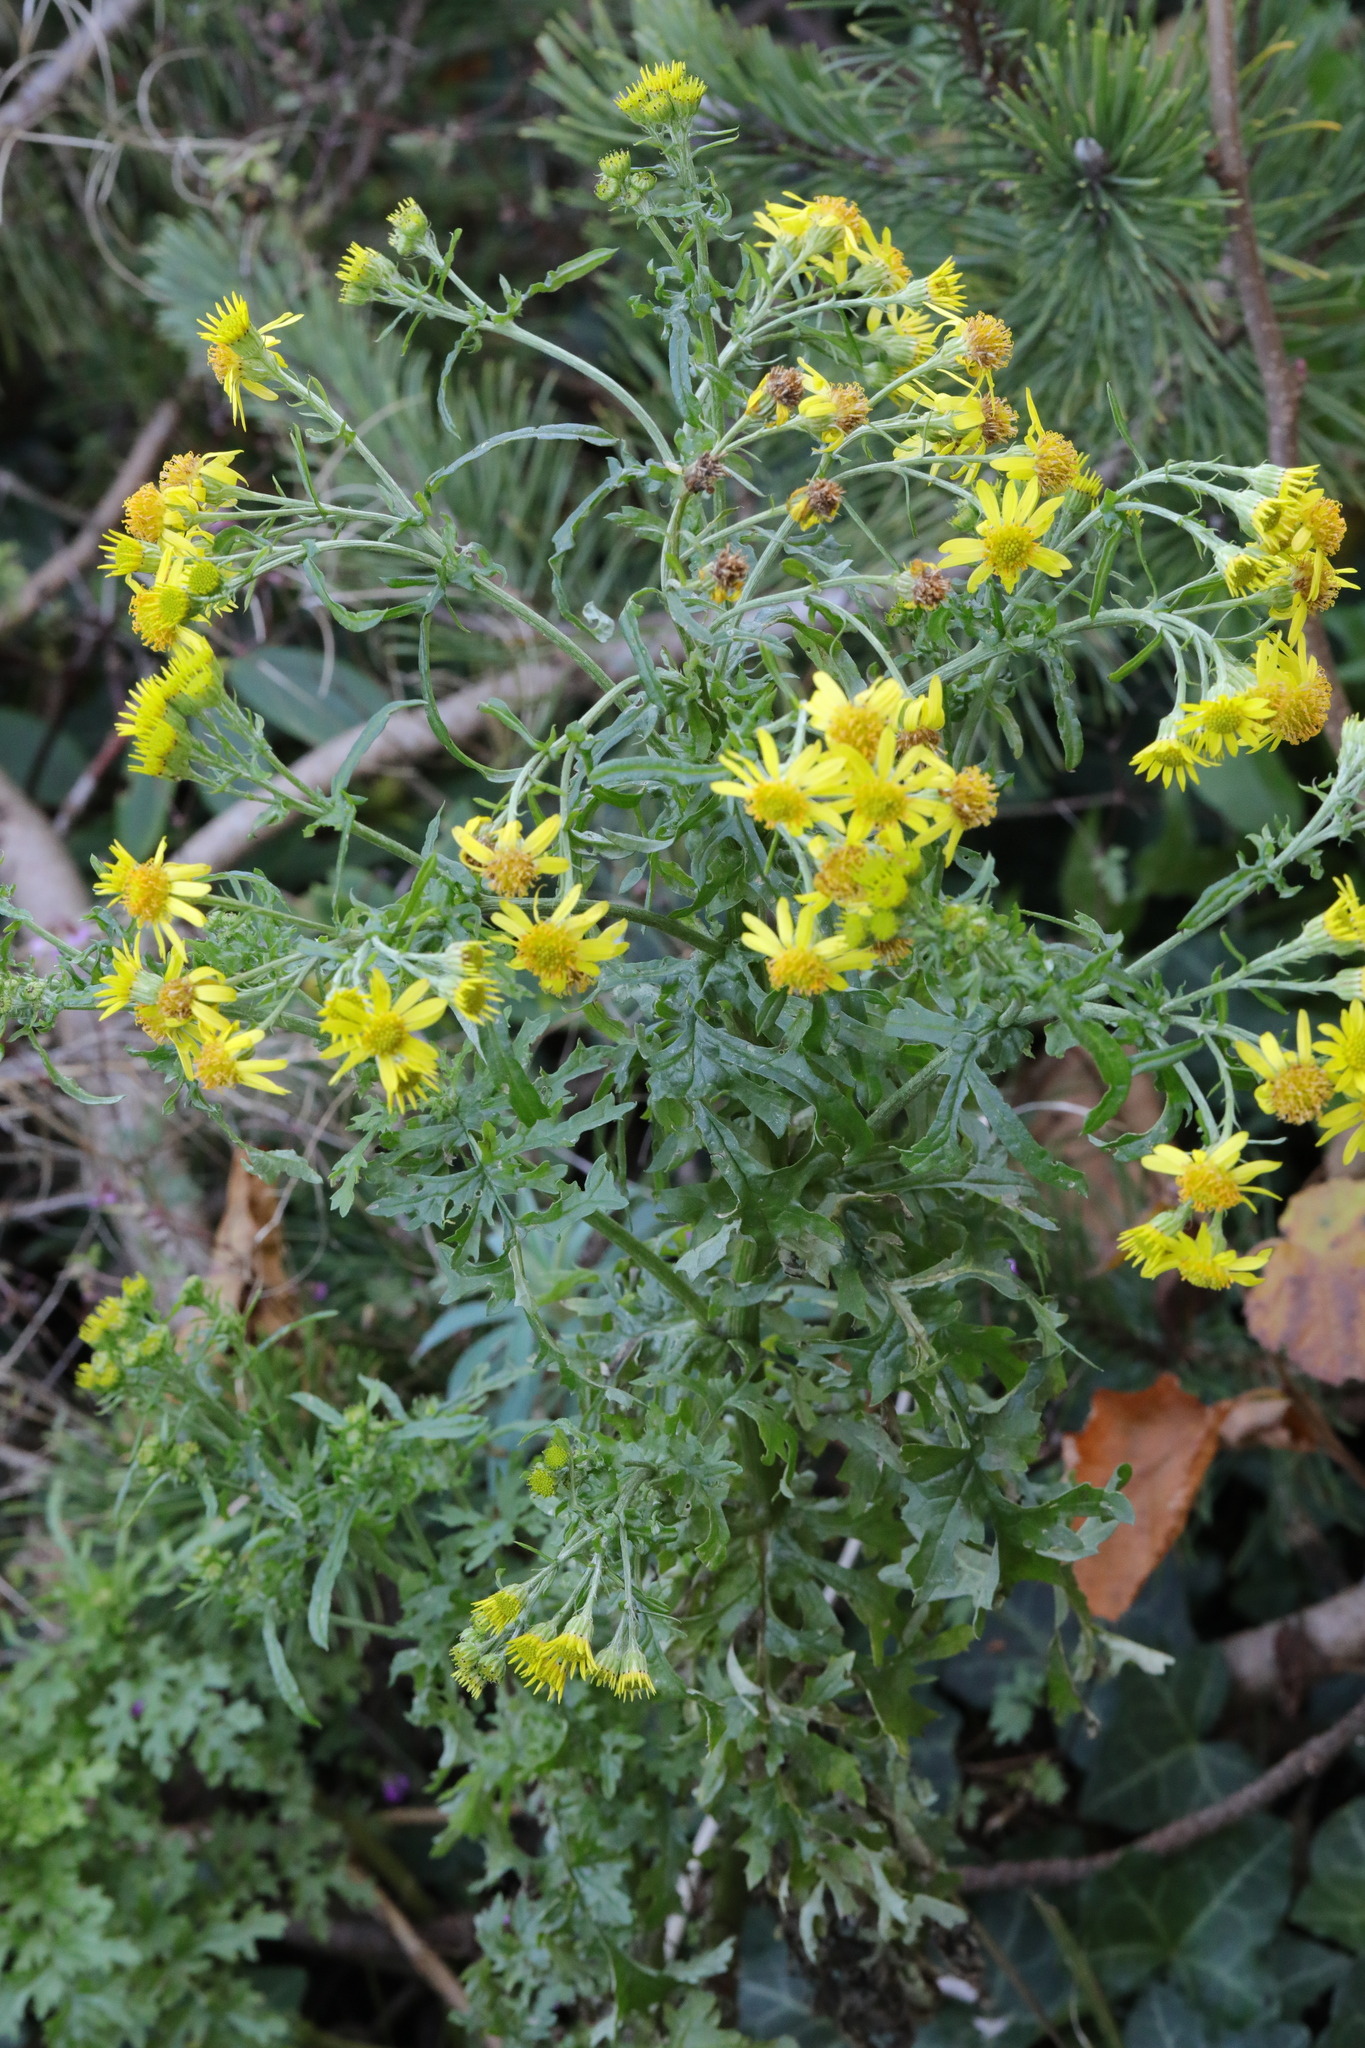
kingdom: Plantae
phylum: Tracheophyta
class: Magnoliopsida
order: Asterales
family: Asteraceae
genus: Jacobaea
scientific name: Jacobaea vulgaris
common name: Stinking willie
